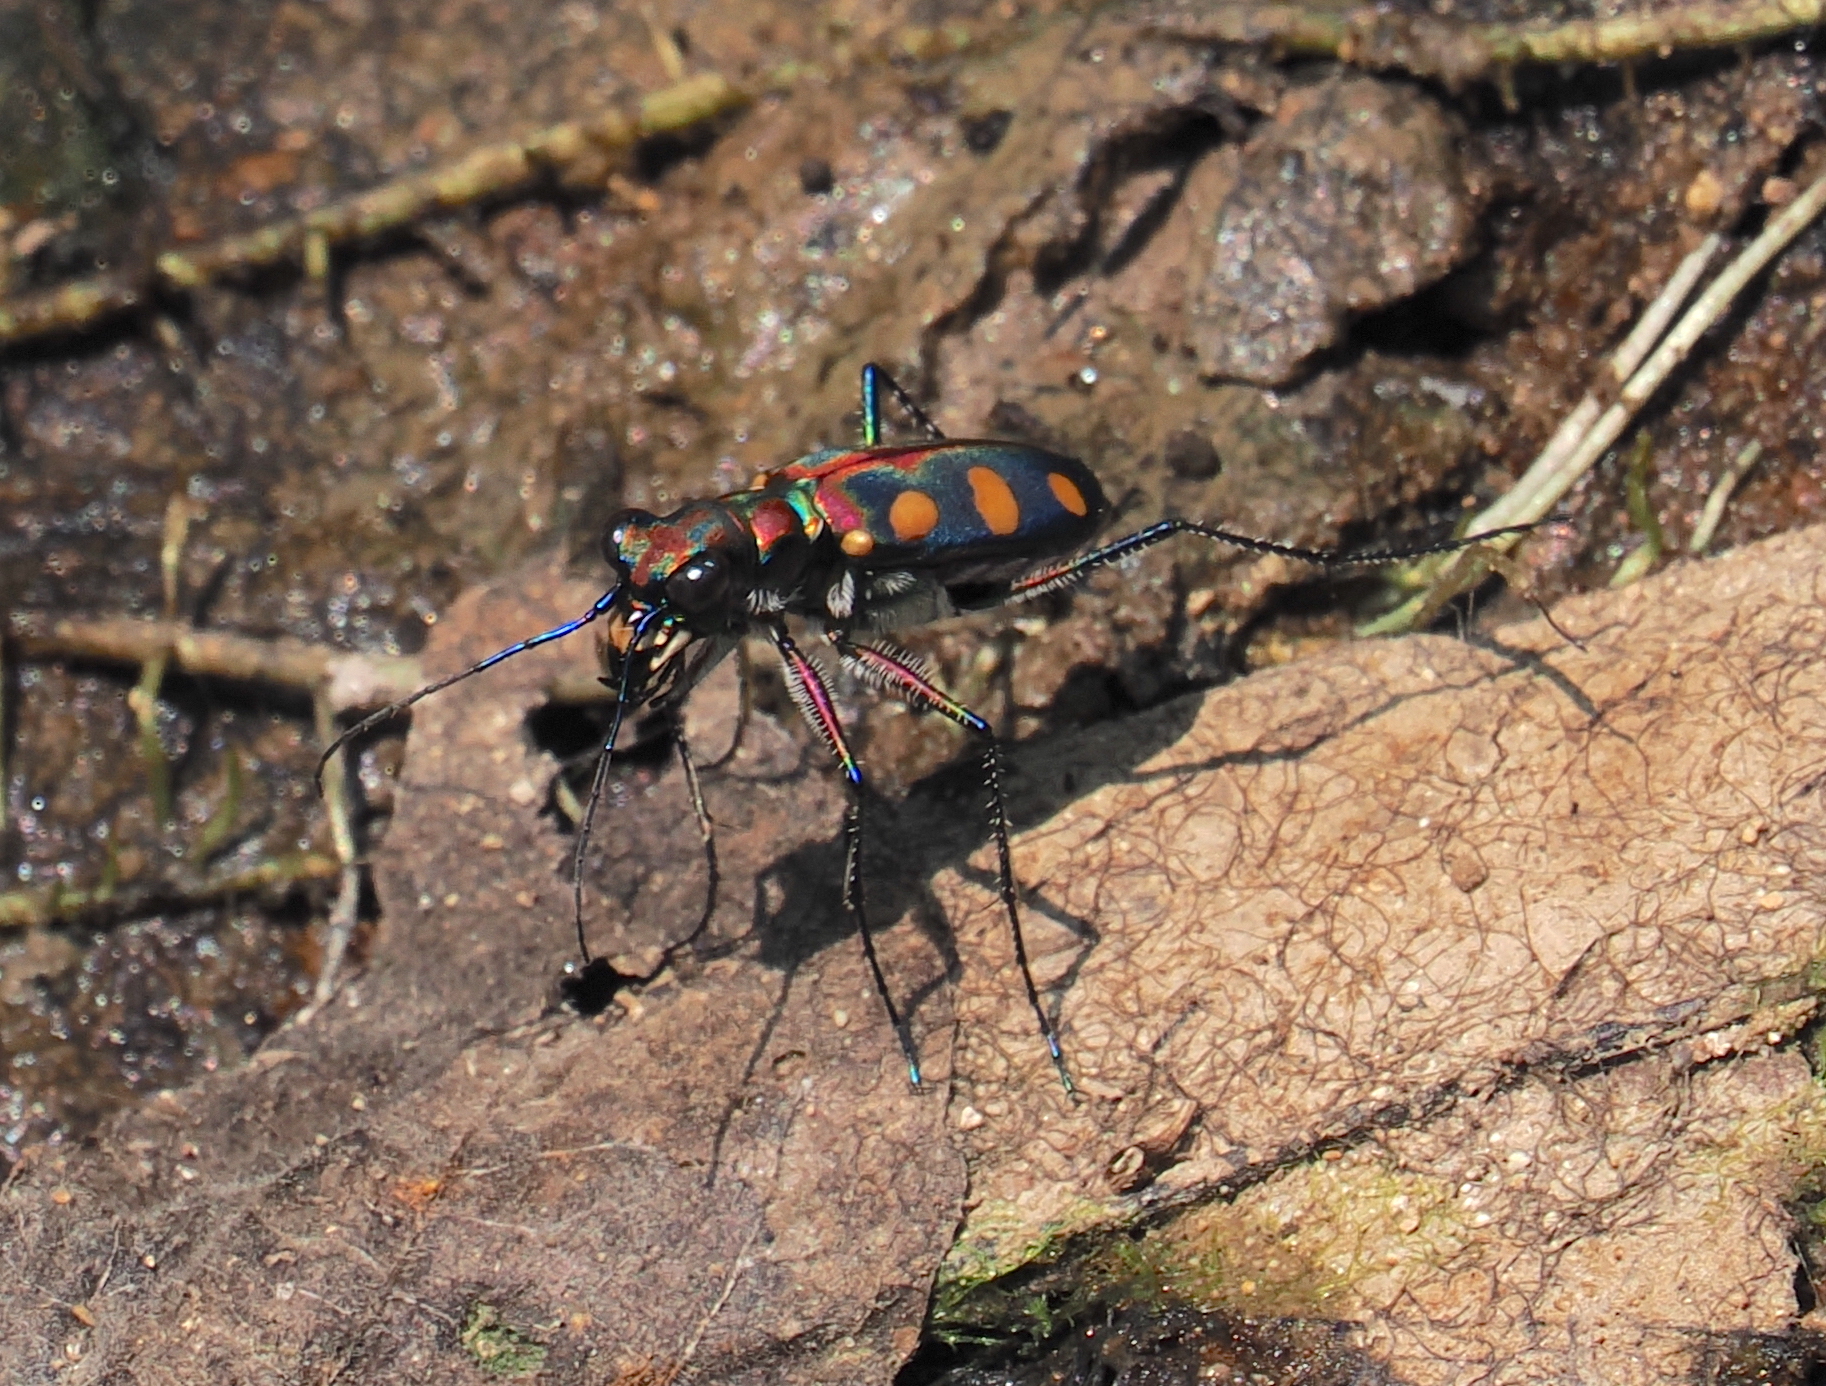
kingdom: Animalia
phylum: Arthropoda
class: Insecta
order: Coleoptera
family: Carabidae
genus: Cicindela
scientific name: Cicindela aurulenta
